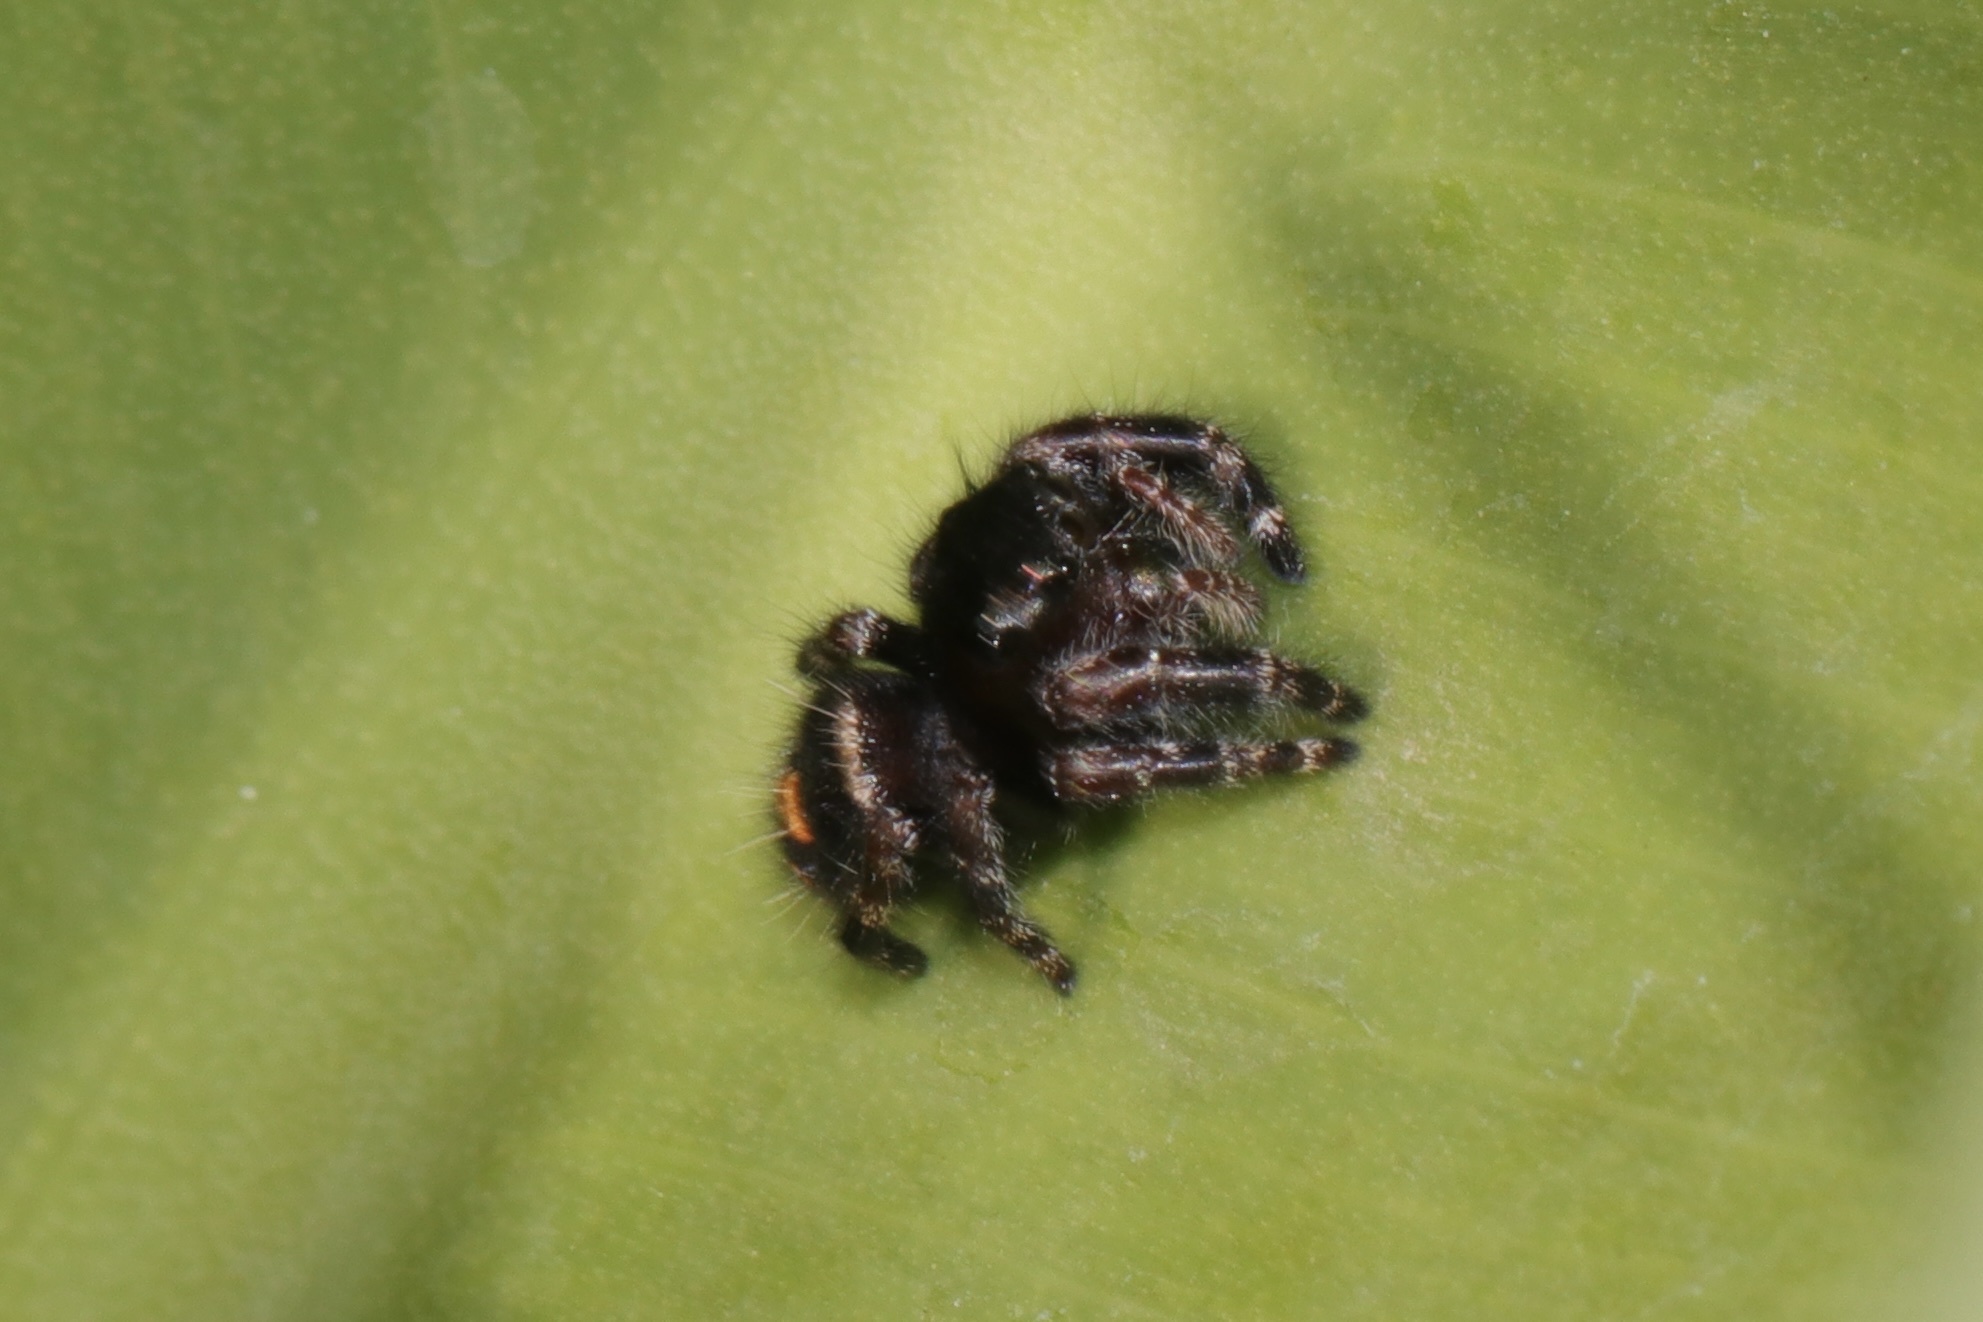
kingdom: Animalia
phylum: Arthropoda
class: Arachnida
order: Araneae
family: Salticidae
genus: Phidippus
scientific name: Phidippus audax
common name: Bold jumper
